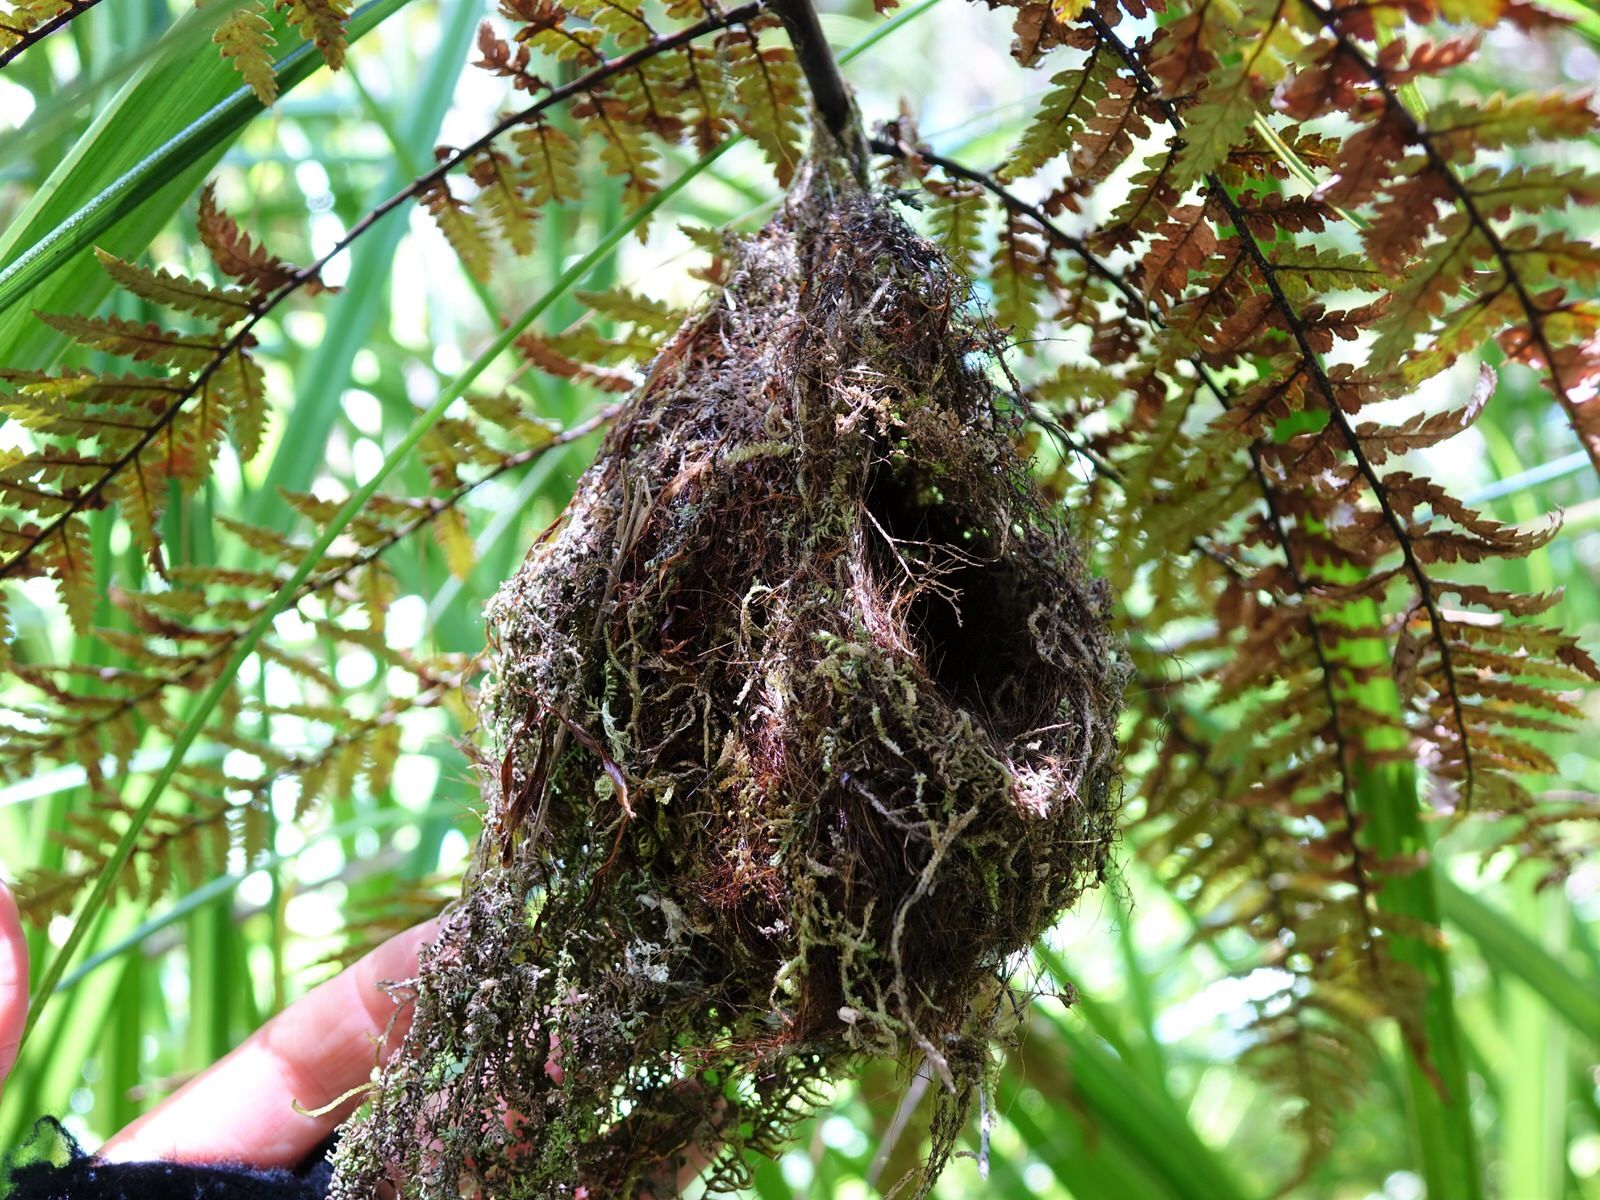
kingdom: Animalia
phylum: Chordata
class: Aves
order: Passeriformes
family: Acanthizidae
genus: Gerygone
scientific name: Gerygone igata
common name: Grey gerygone
